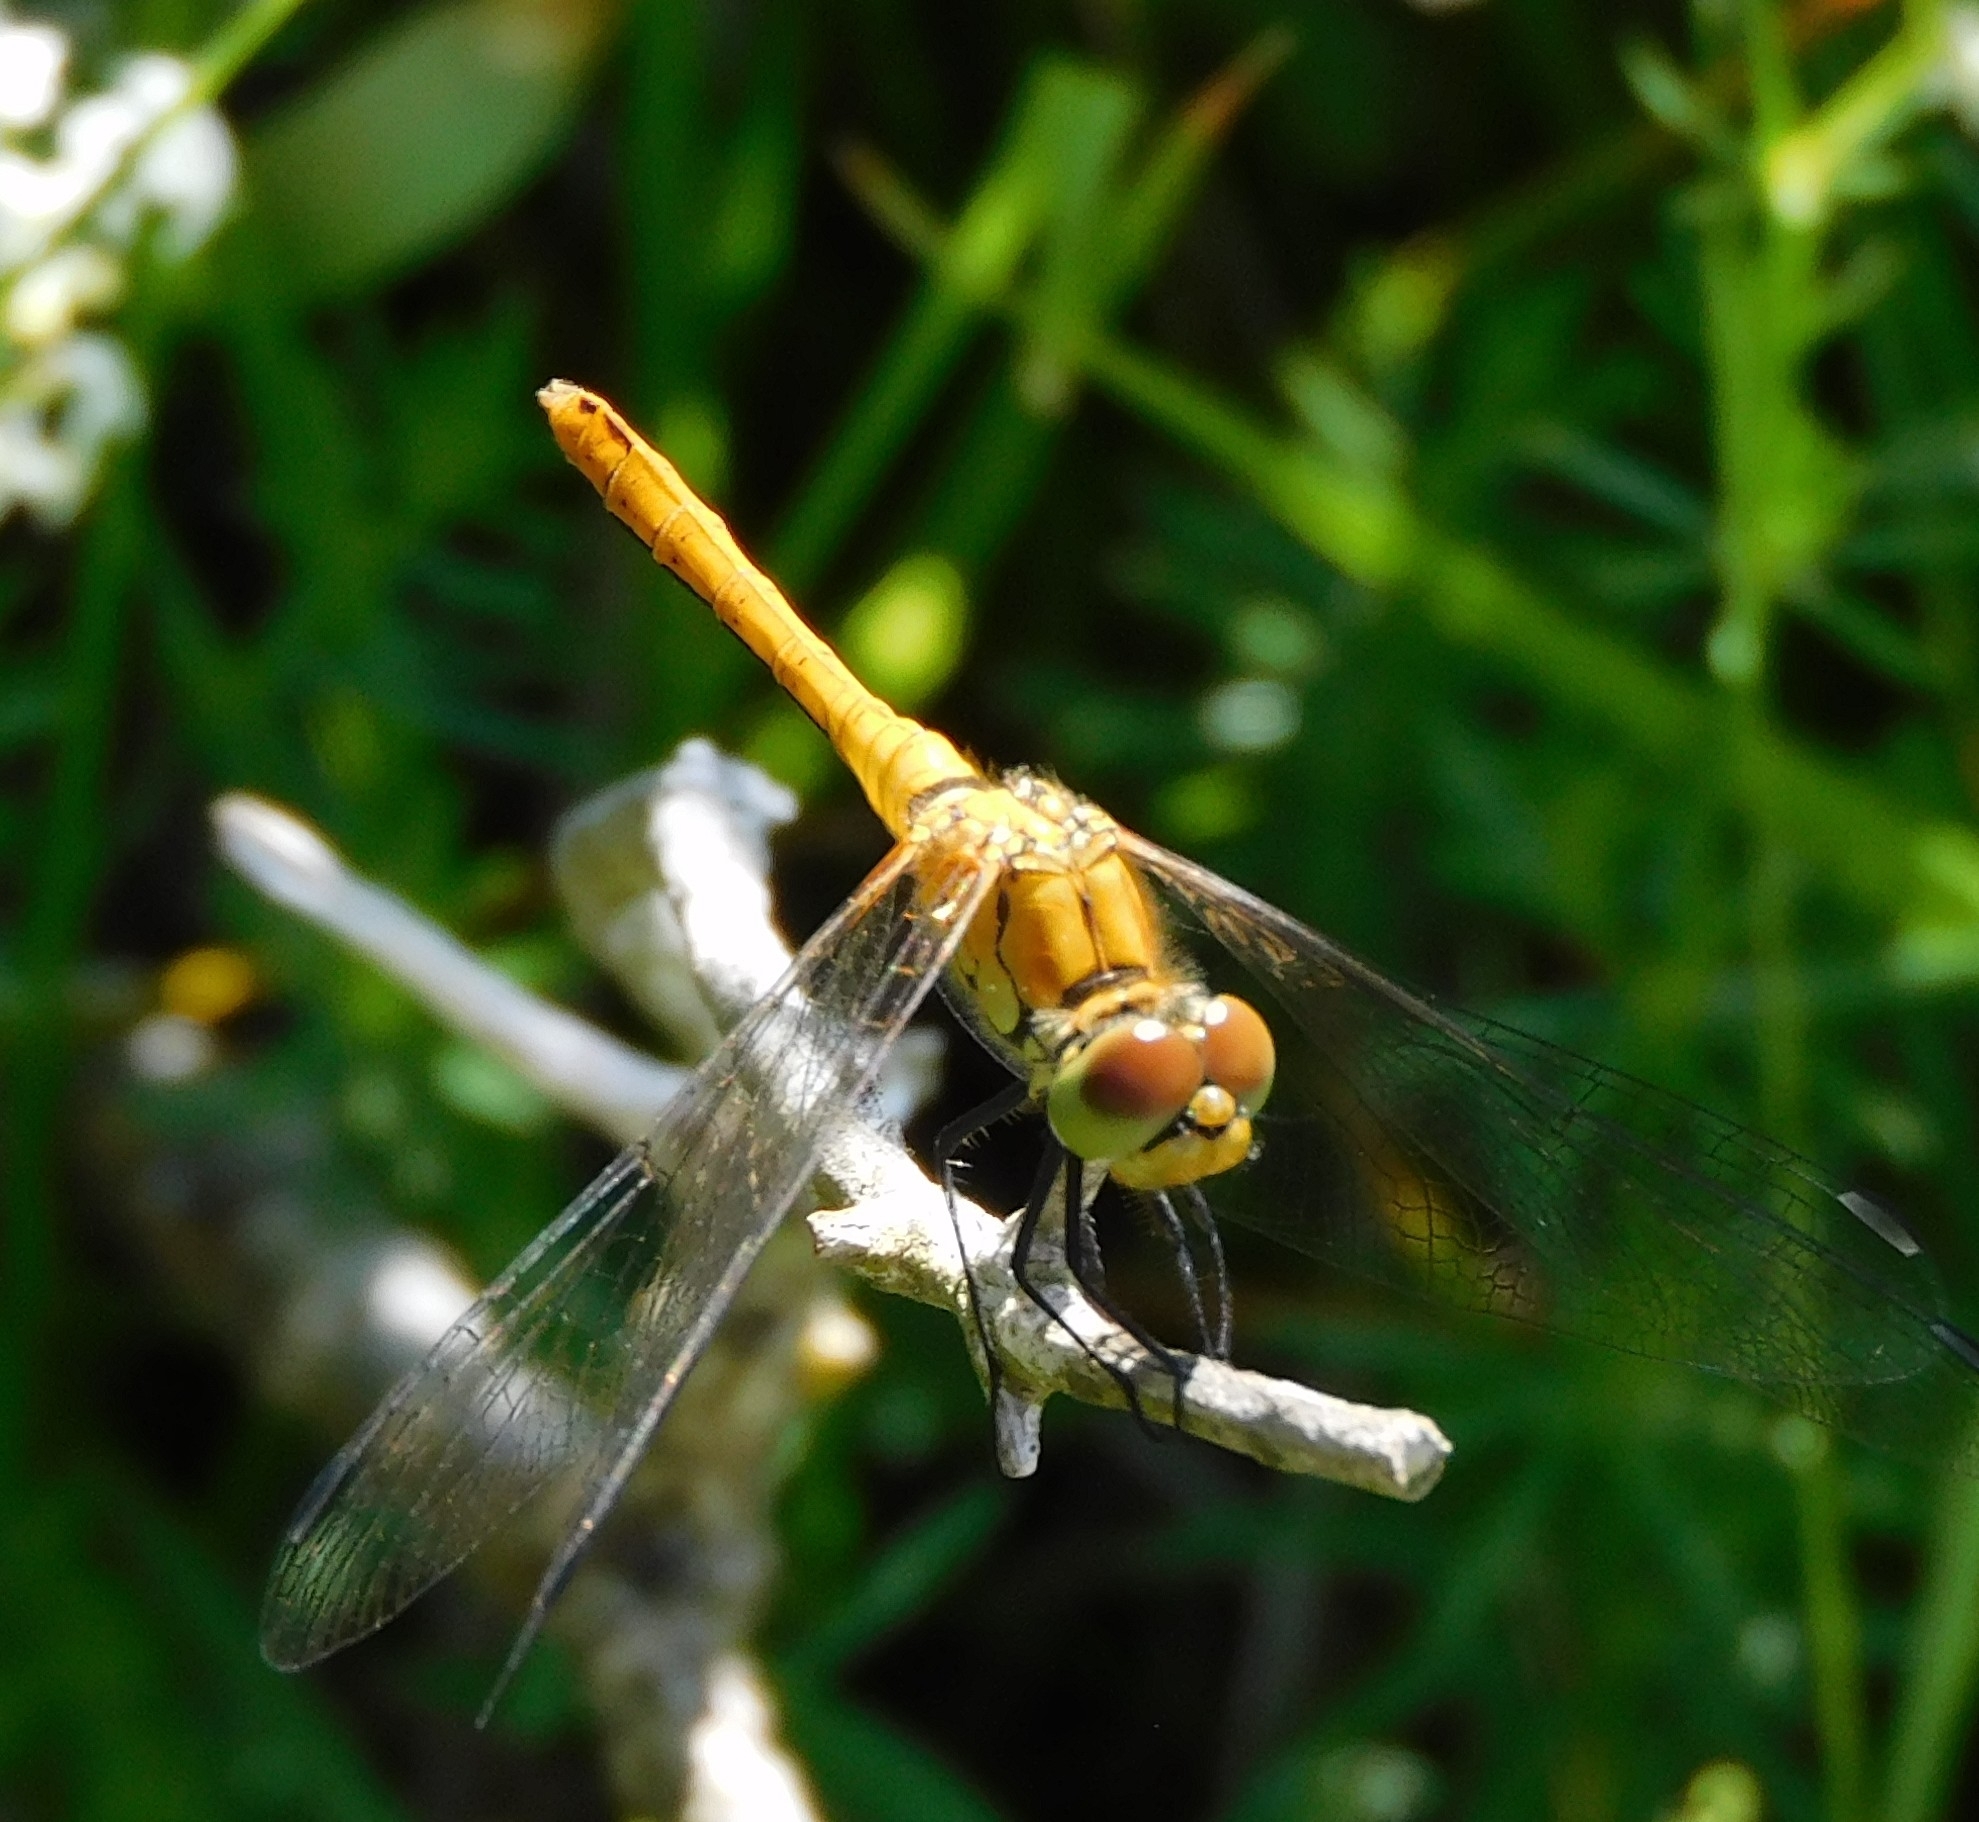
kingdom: Animalia
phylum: Arthropoda
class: Insecta
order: Odonata
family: Libellulidae
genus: Sympetrum
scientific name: Sympetrum sanguineum
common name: Ruddy darter
